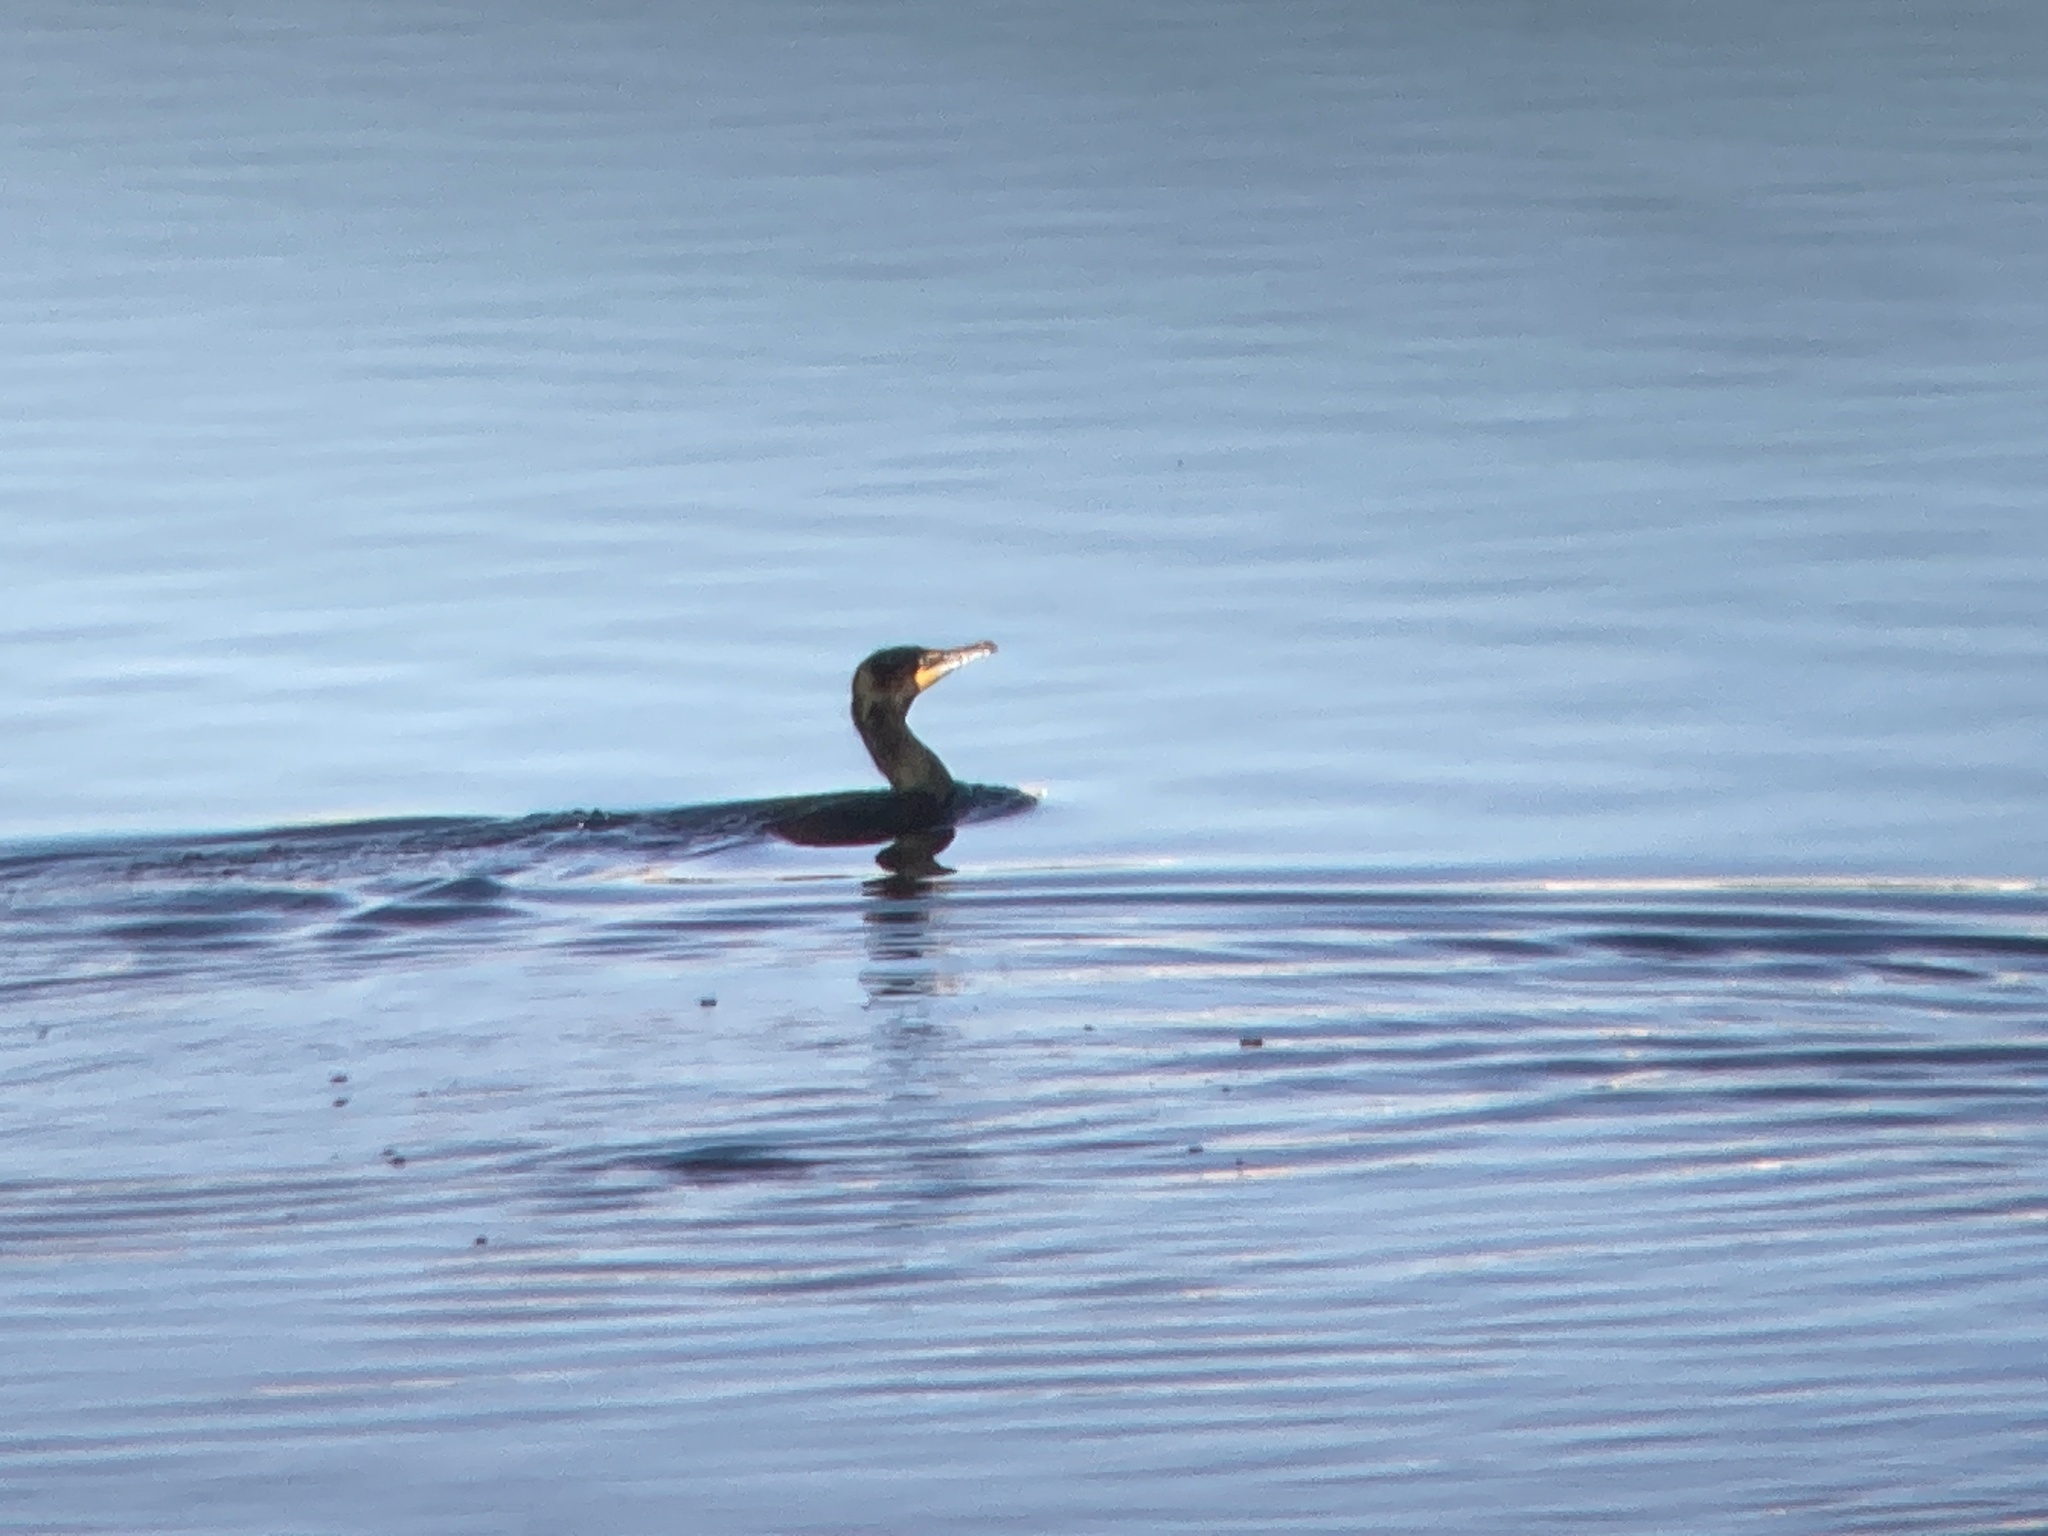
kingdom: Animalia
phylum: Chordata
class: Aves
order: Suliformes
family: Phalacrocoracidae
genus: Phalacrocorax
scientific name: Phalacrocorax auritus
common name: Double-crested cormorant
